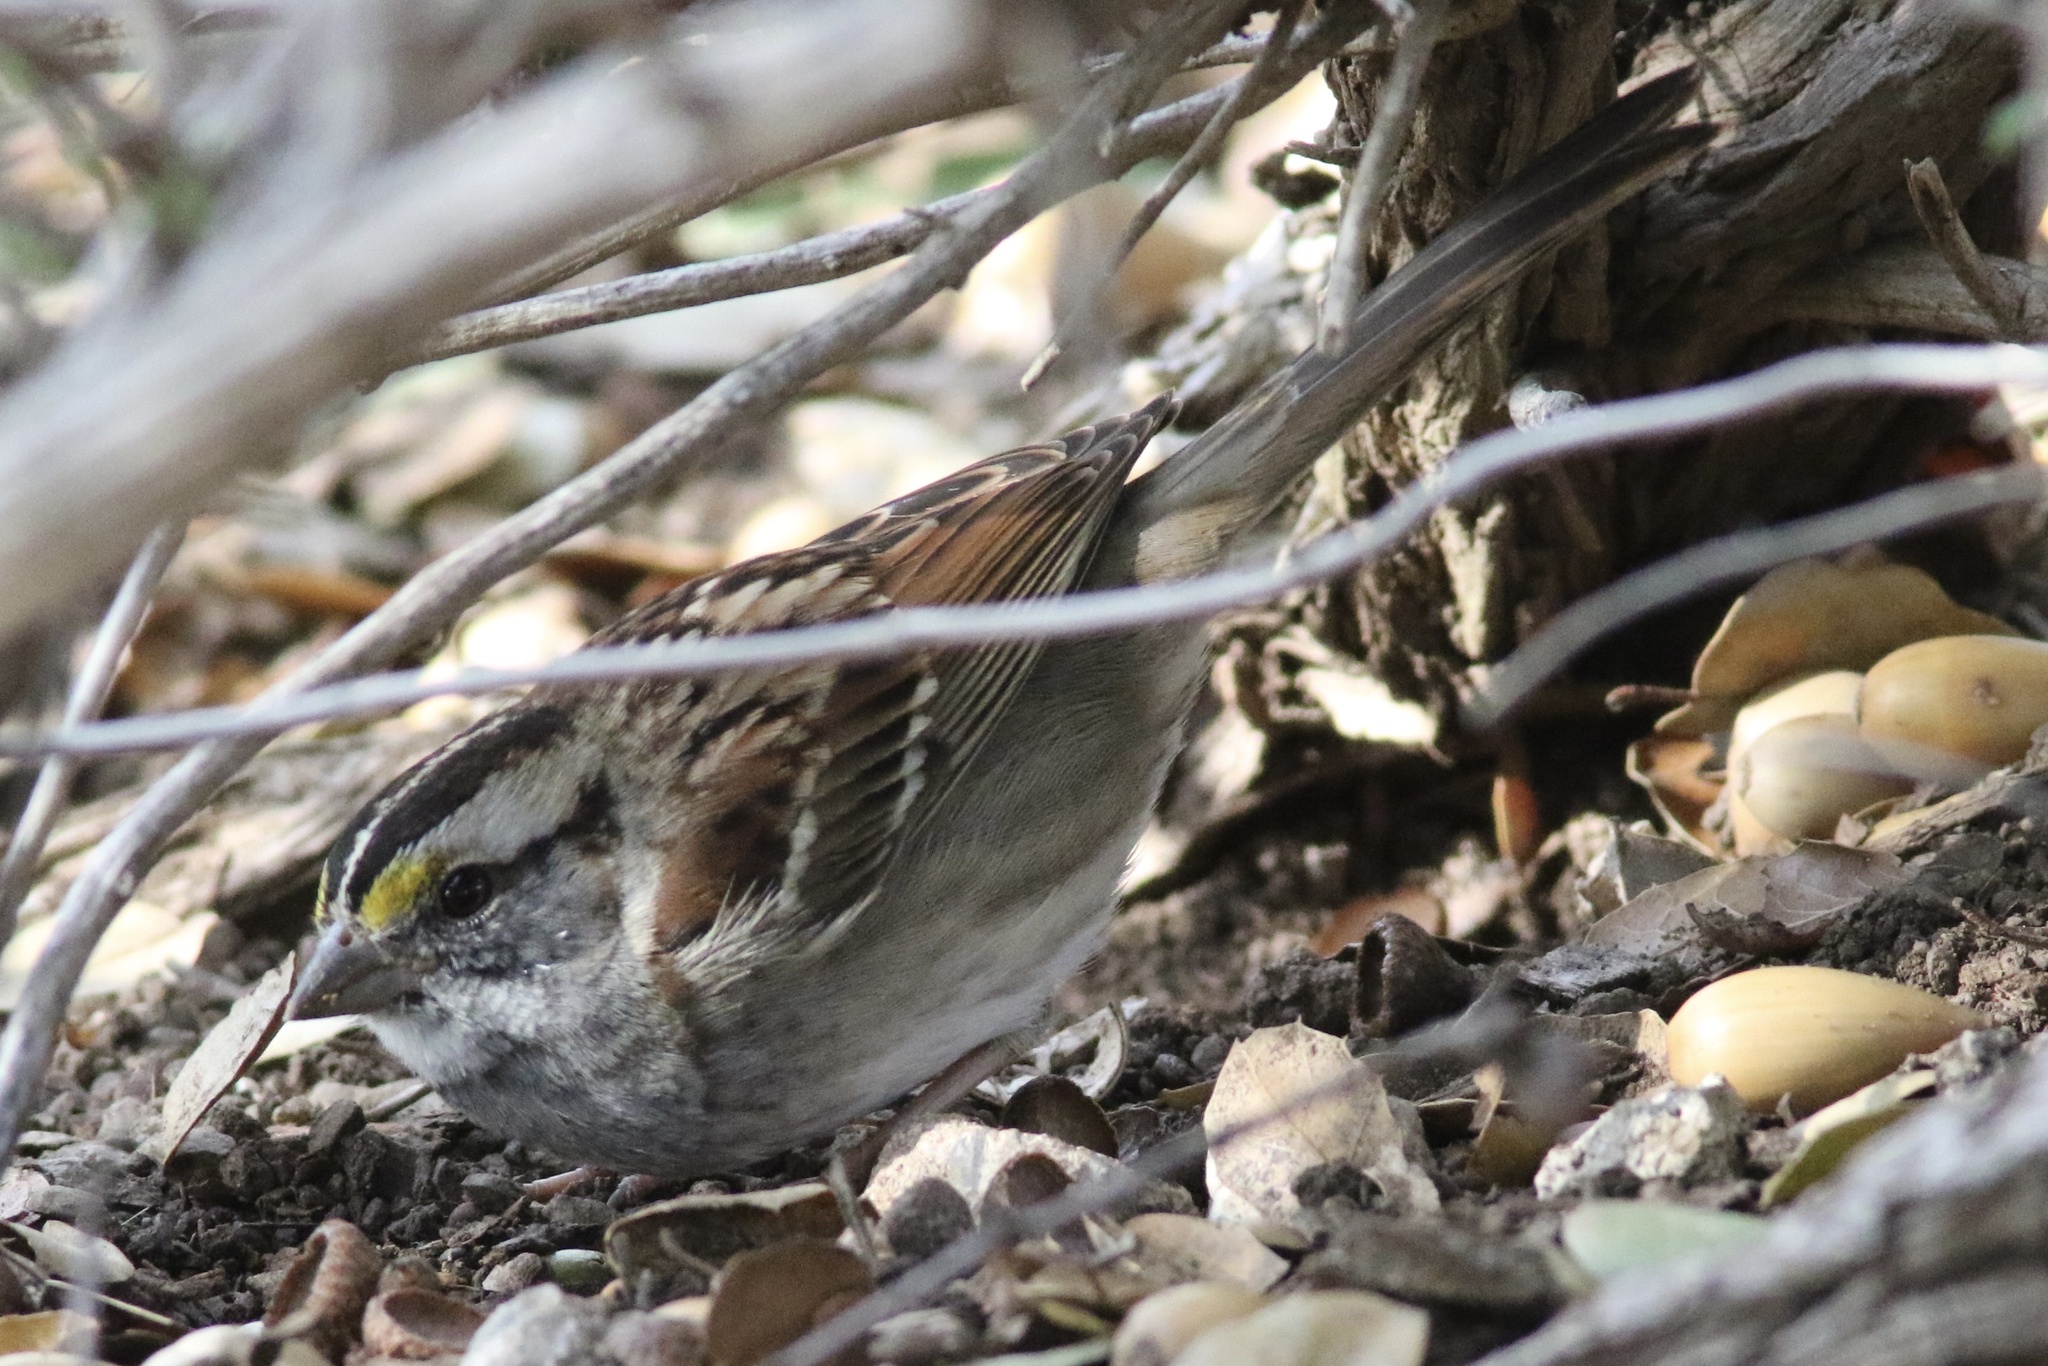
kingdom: Animalia
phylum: Chordata
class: Aves
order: Passeriformes
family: Passerellidae
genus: Zonotrichia
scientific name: Zonotrichia albicollis
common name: White-throated sparrow
